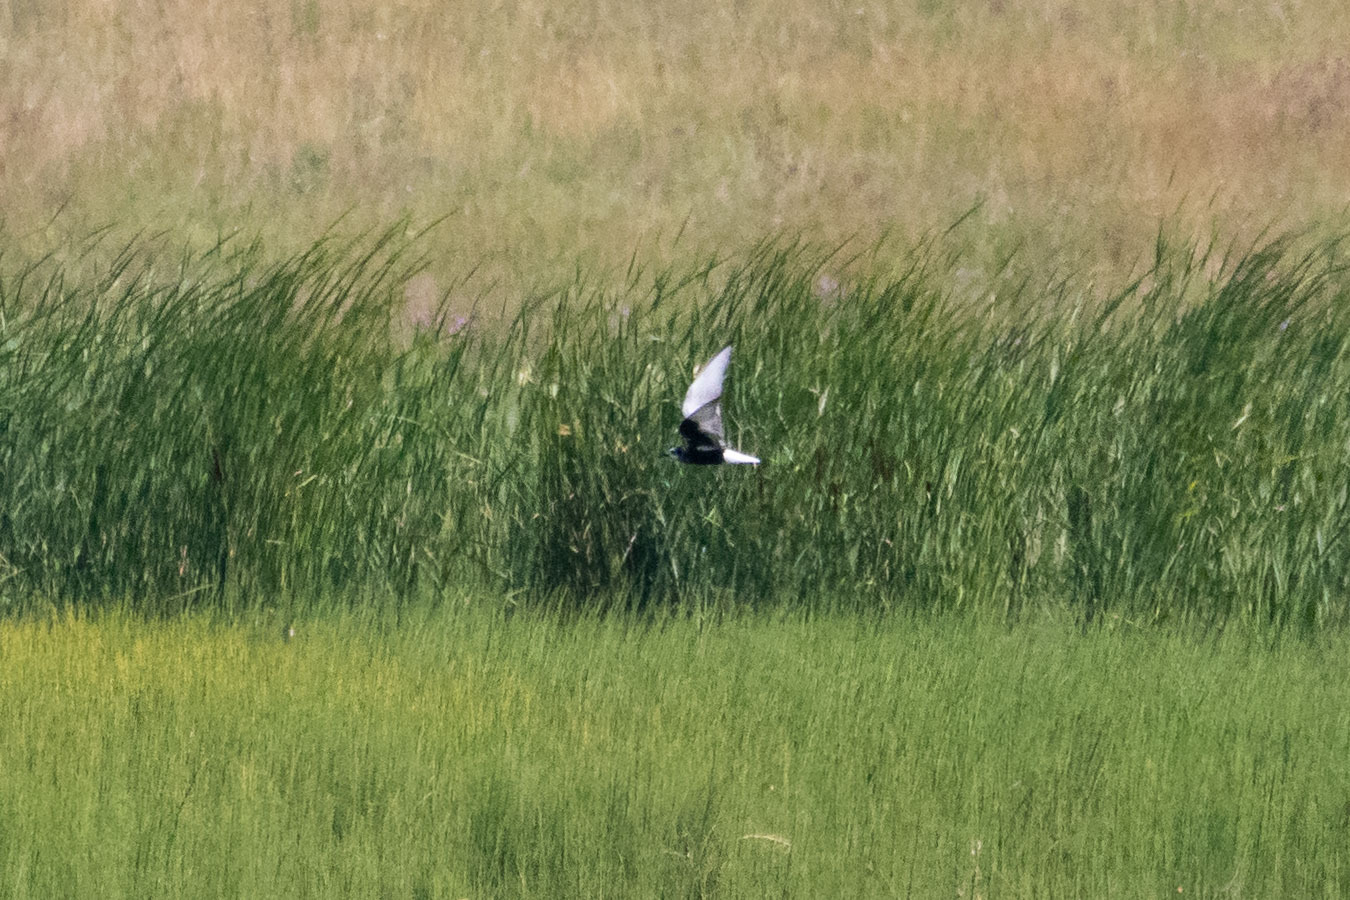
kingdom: Animalia
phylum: Chordata
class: Aves
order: Charadriiformes
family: Laridae
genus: Chlidonias
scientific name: Chlidonias leucopterus
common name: White-winged tern
